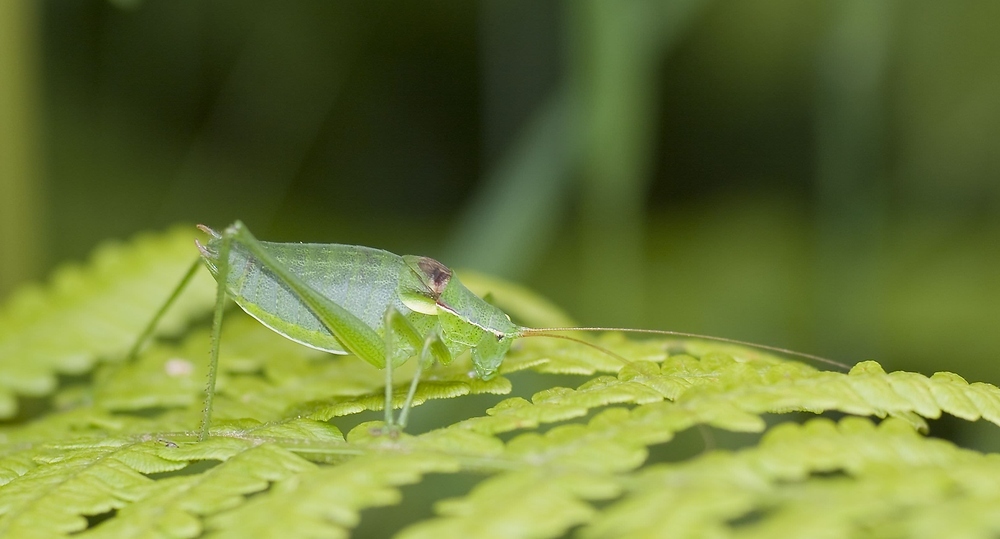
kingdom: Animalia
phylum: Arthropoda
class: Insecta
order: Orthoptera
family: Tettigoniidae
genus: Isophya
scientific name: Isophya pyrenaea
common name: Pyrenean plump bush-cricket
